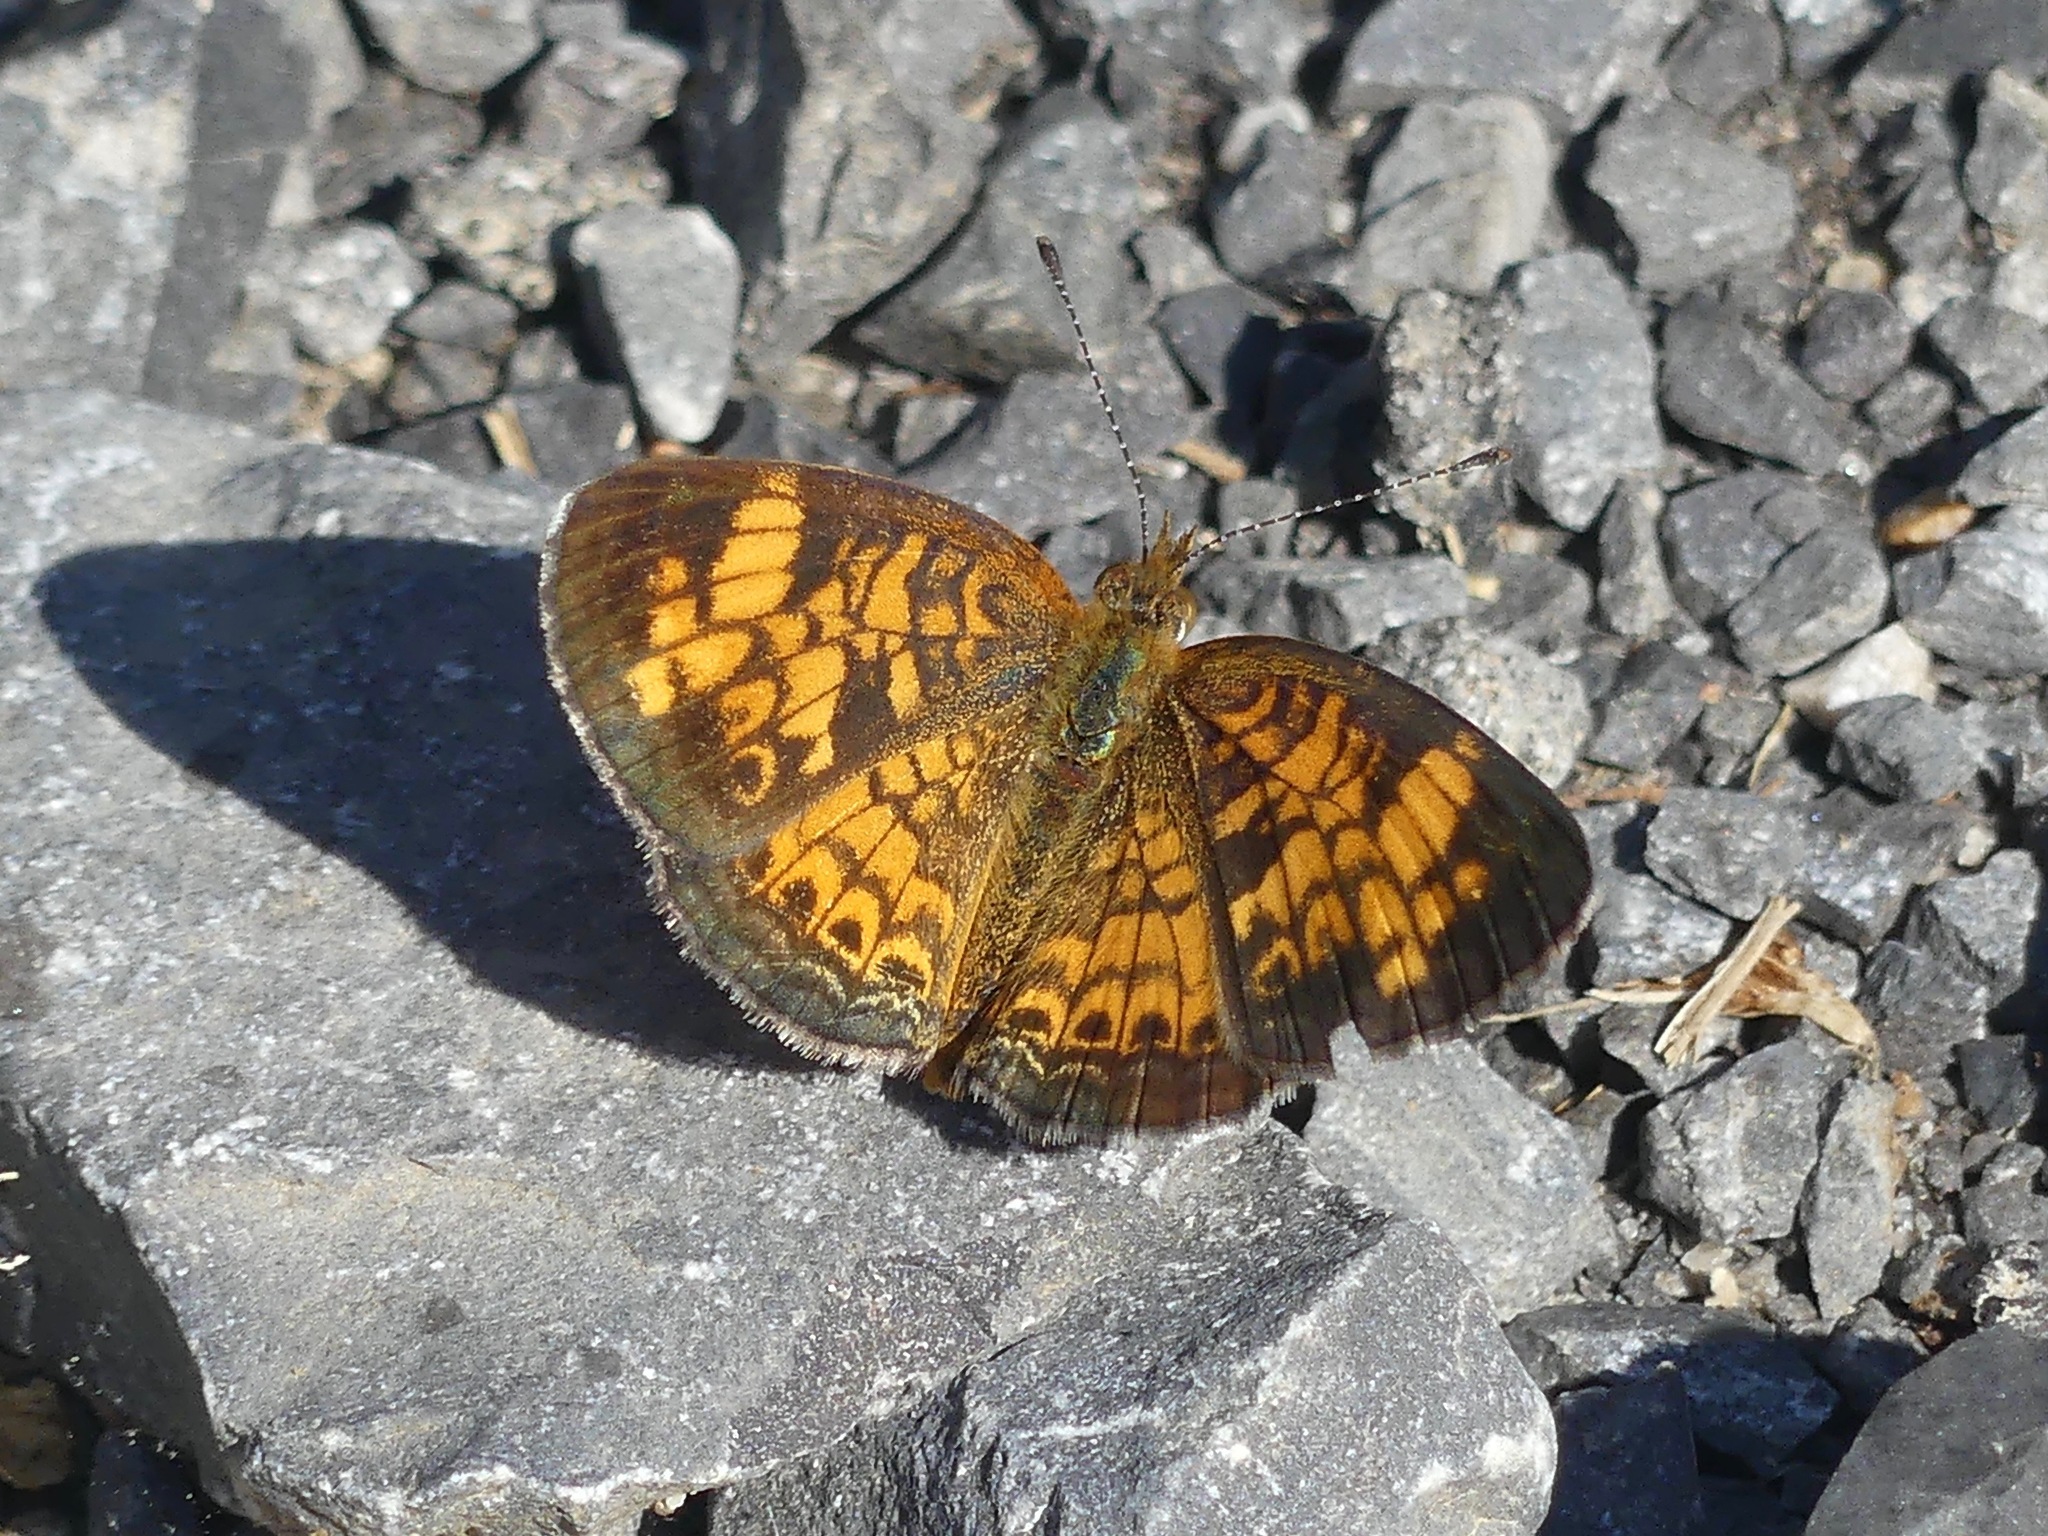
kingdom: Animalia
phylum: Arthropoda
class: Insecta
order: Lepidoptera
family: Nymphalidae
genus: Phyciodes
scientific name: Phyciodes tharos
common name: Pearl crescent
